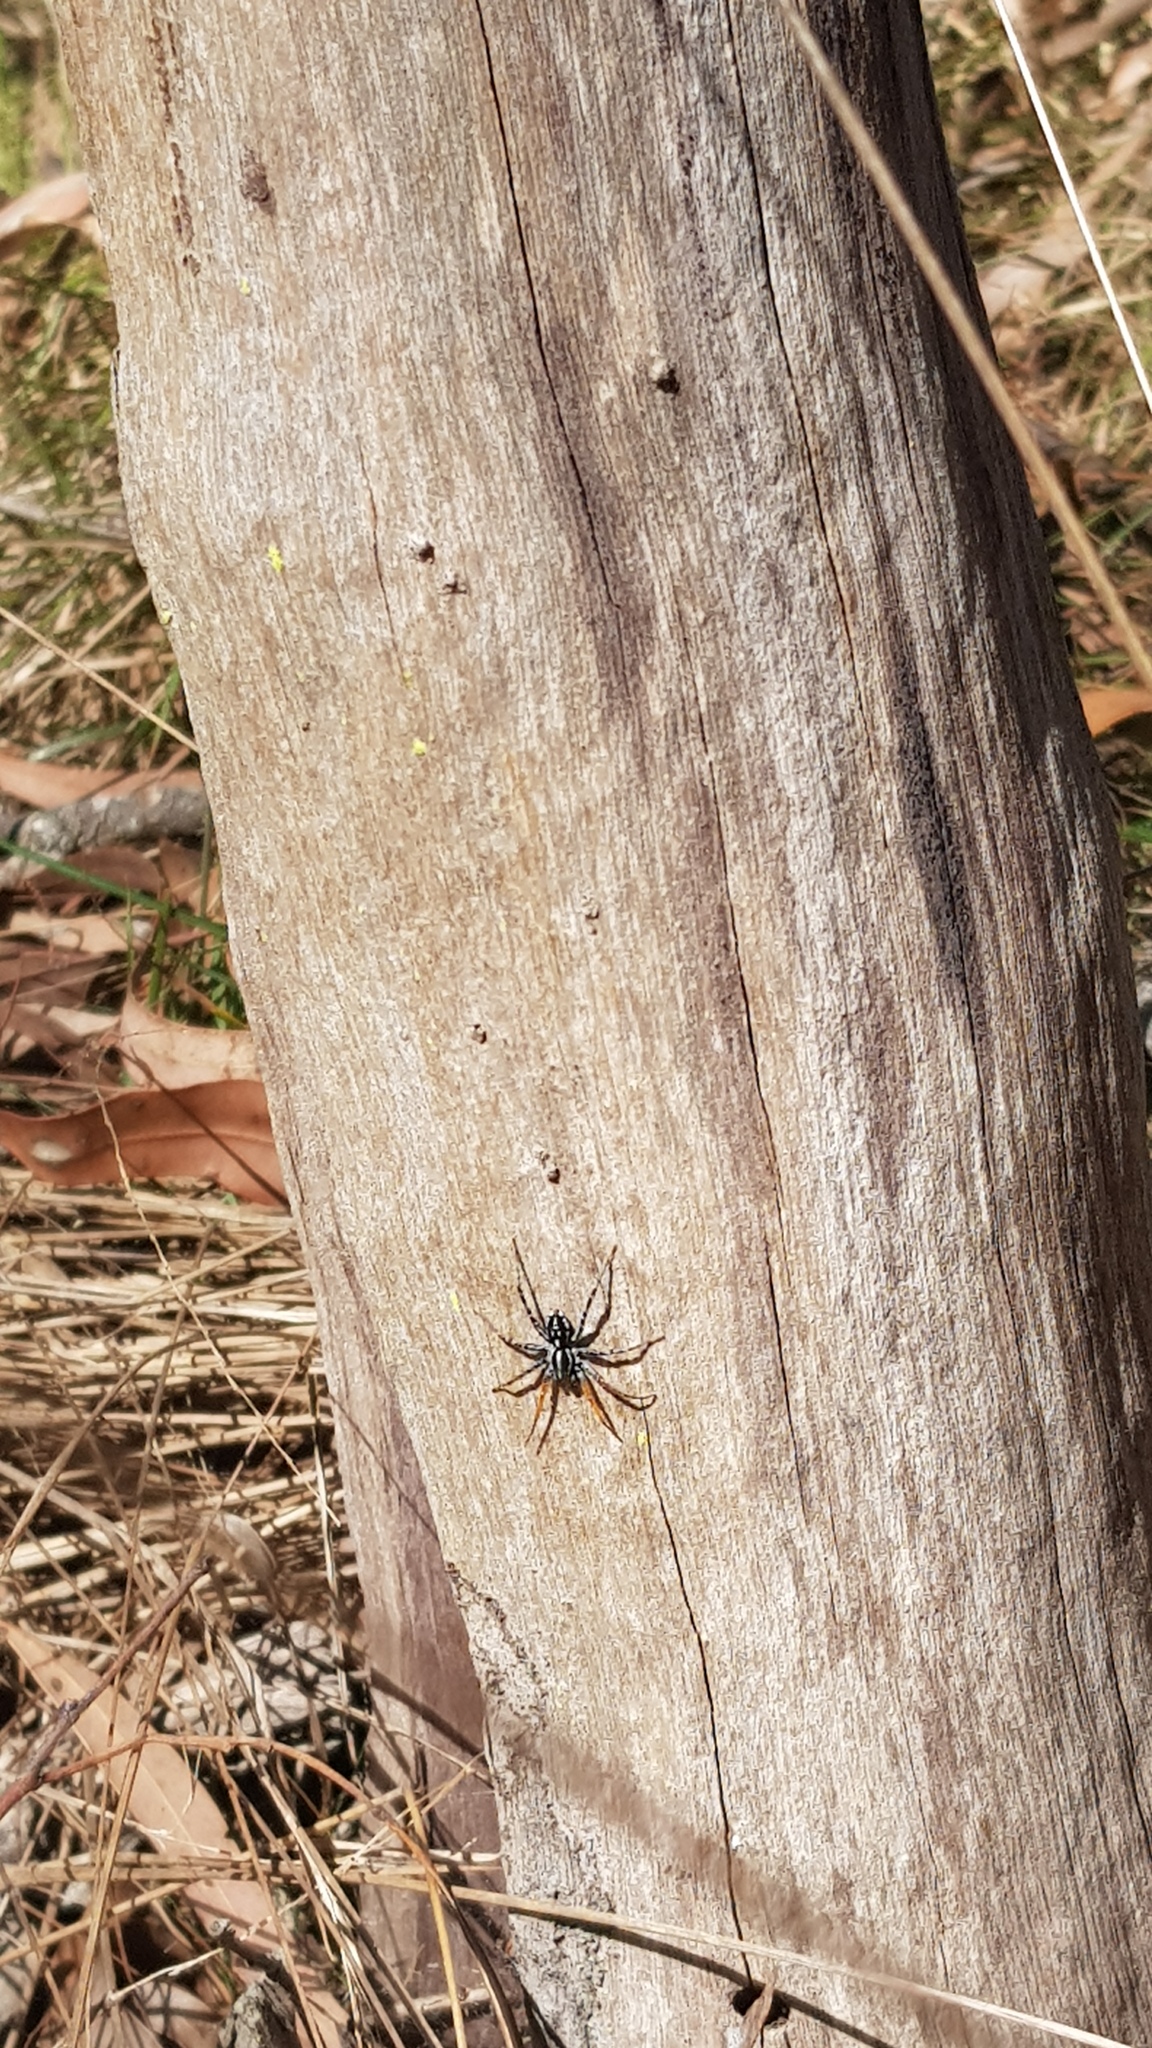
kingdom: Animalia
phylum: Arthropoda
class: Arachnida
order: Araneae
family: Corinnidae
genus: Nyssus
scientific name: Nyssus coloripes
